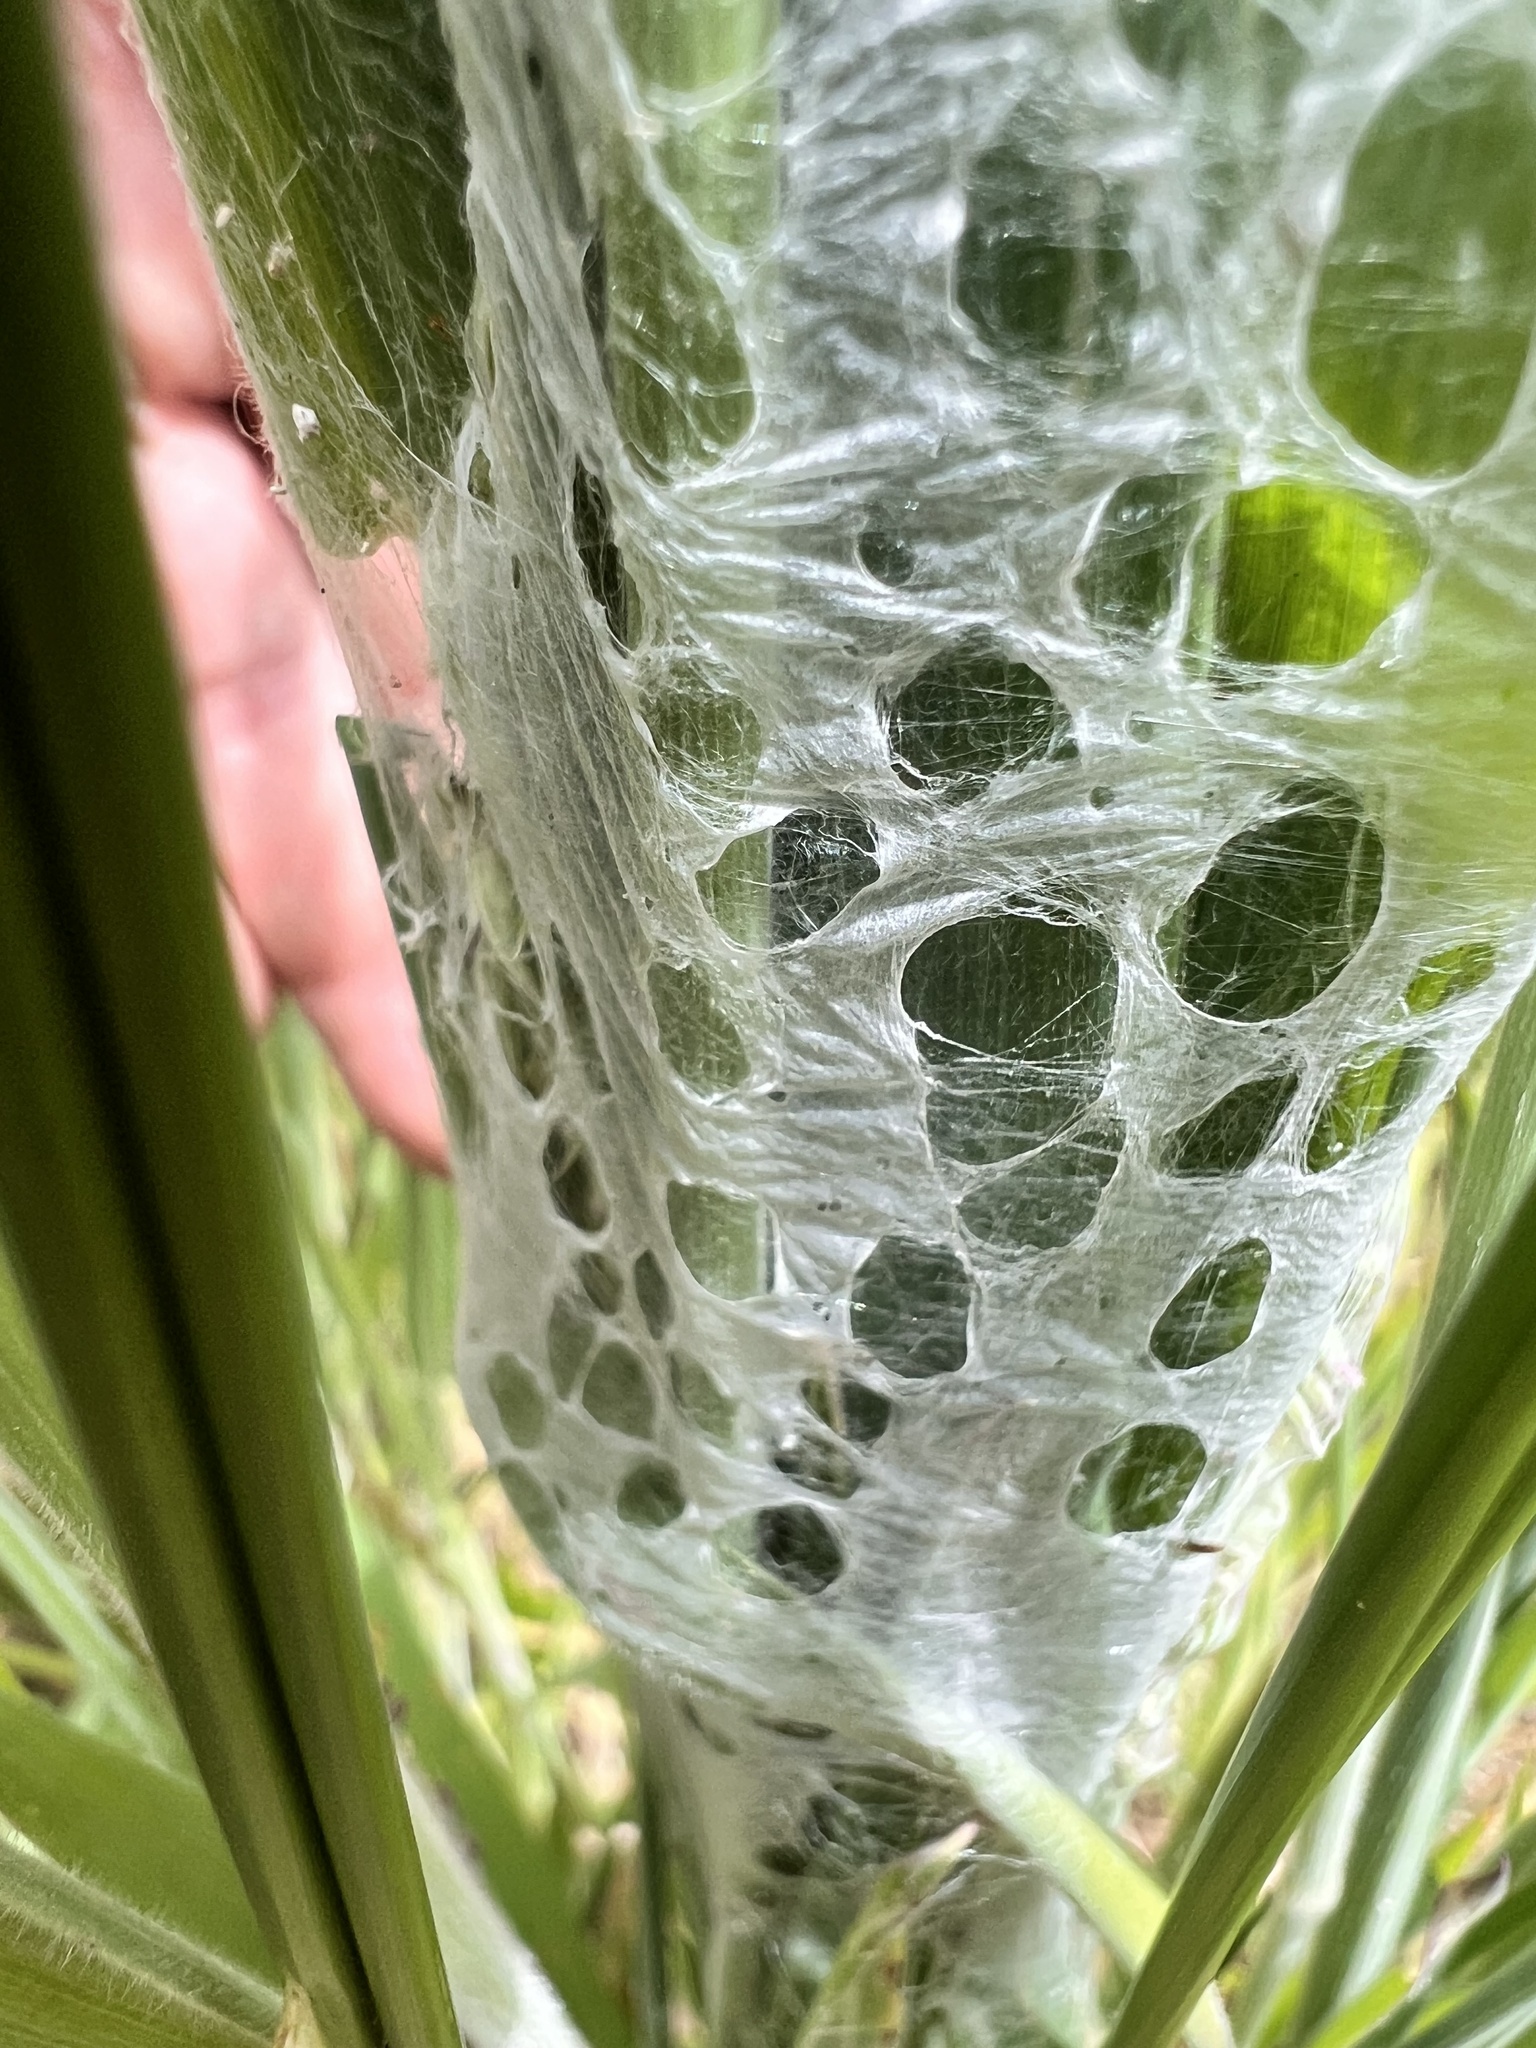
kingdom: Animalia
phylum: Arthropoda
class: Arachnida
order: Araneae
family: Pisauridae
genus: Dolomedes
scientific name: Dolomedes
